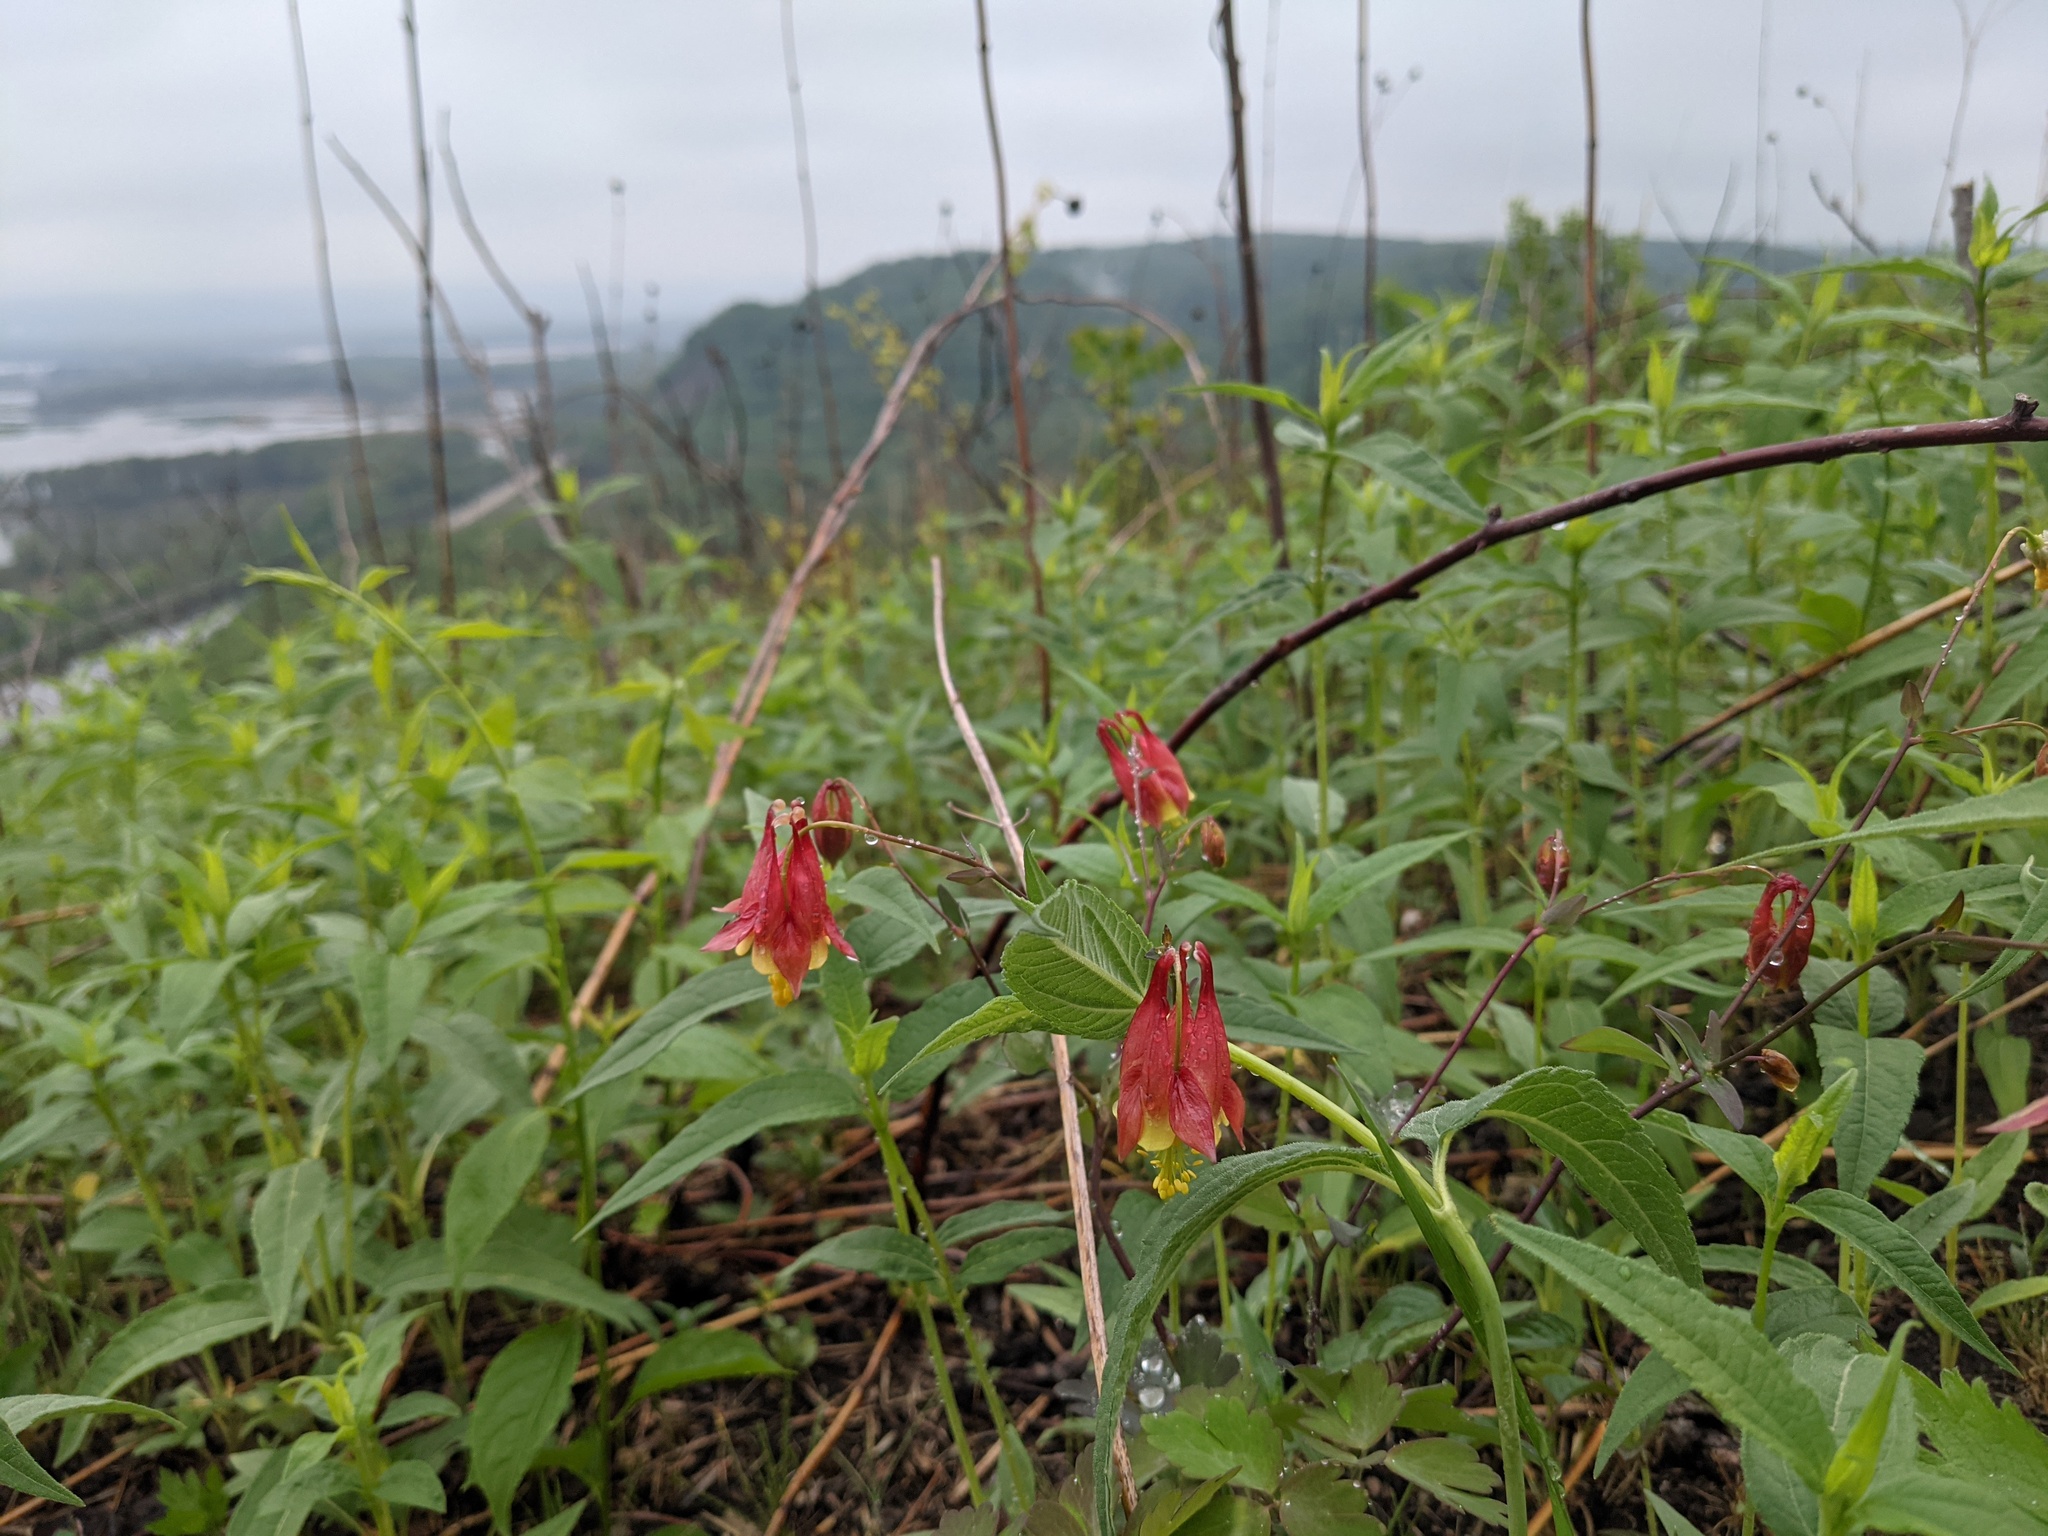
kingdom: Plantae
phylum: Tracheophyta
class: Magnoliopsida
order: Ranunculales
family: Ranunculaceae
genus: Aquilegia
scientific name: Aquilegia canadensis
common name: American columbine
